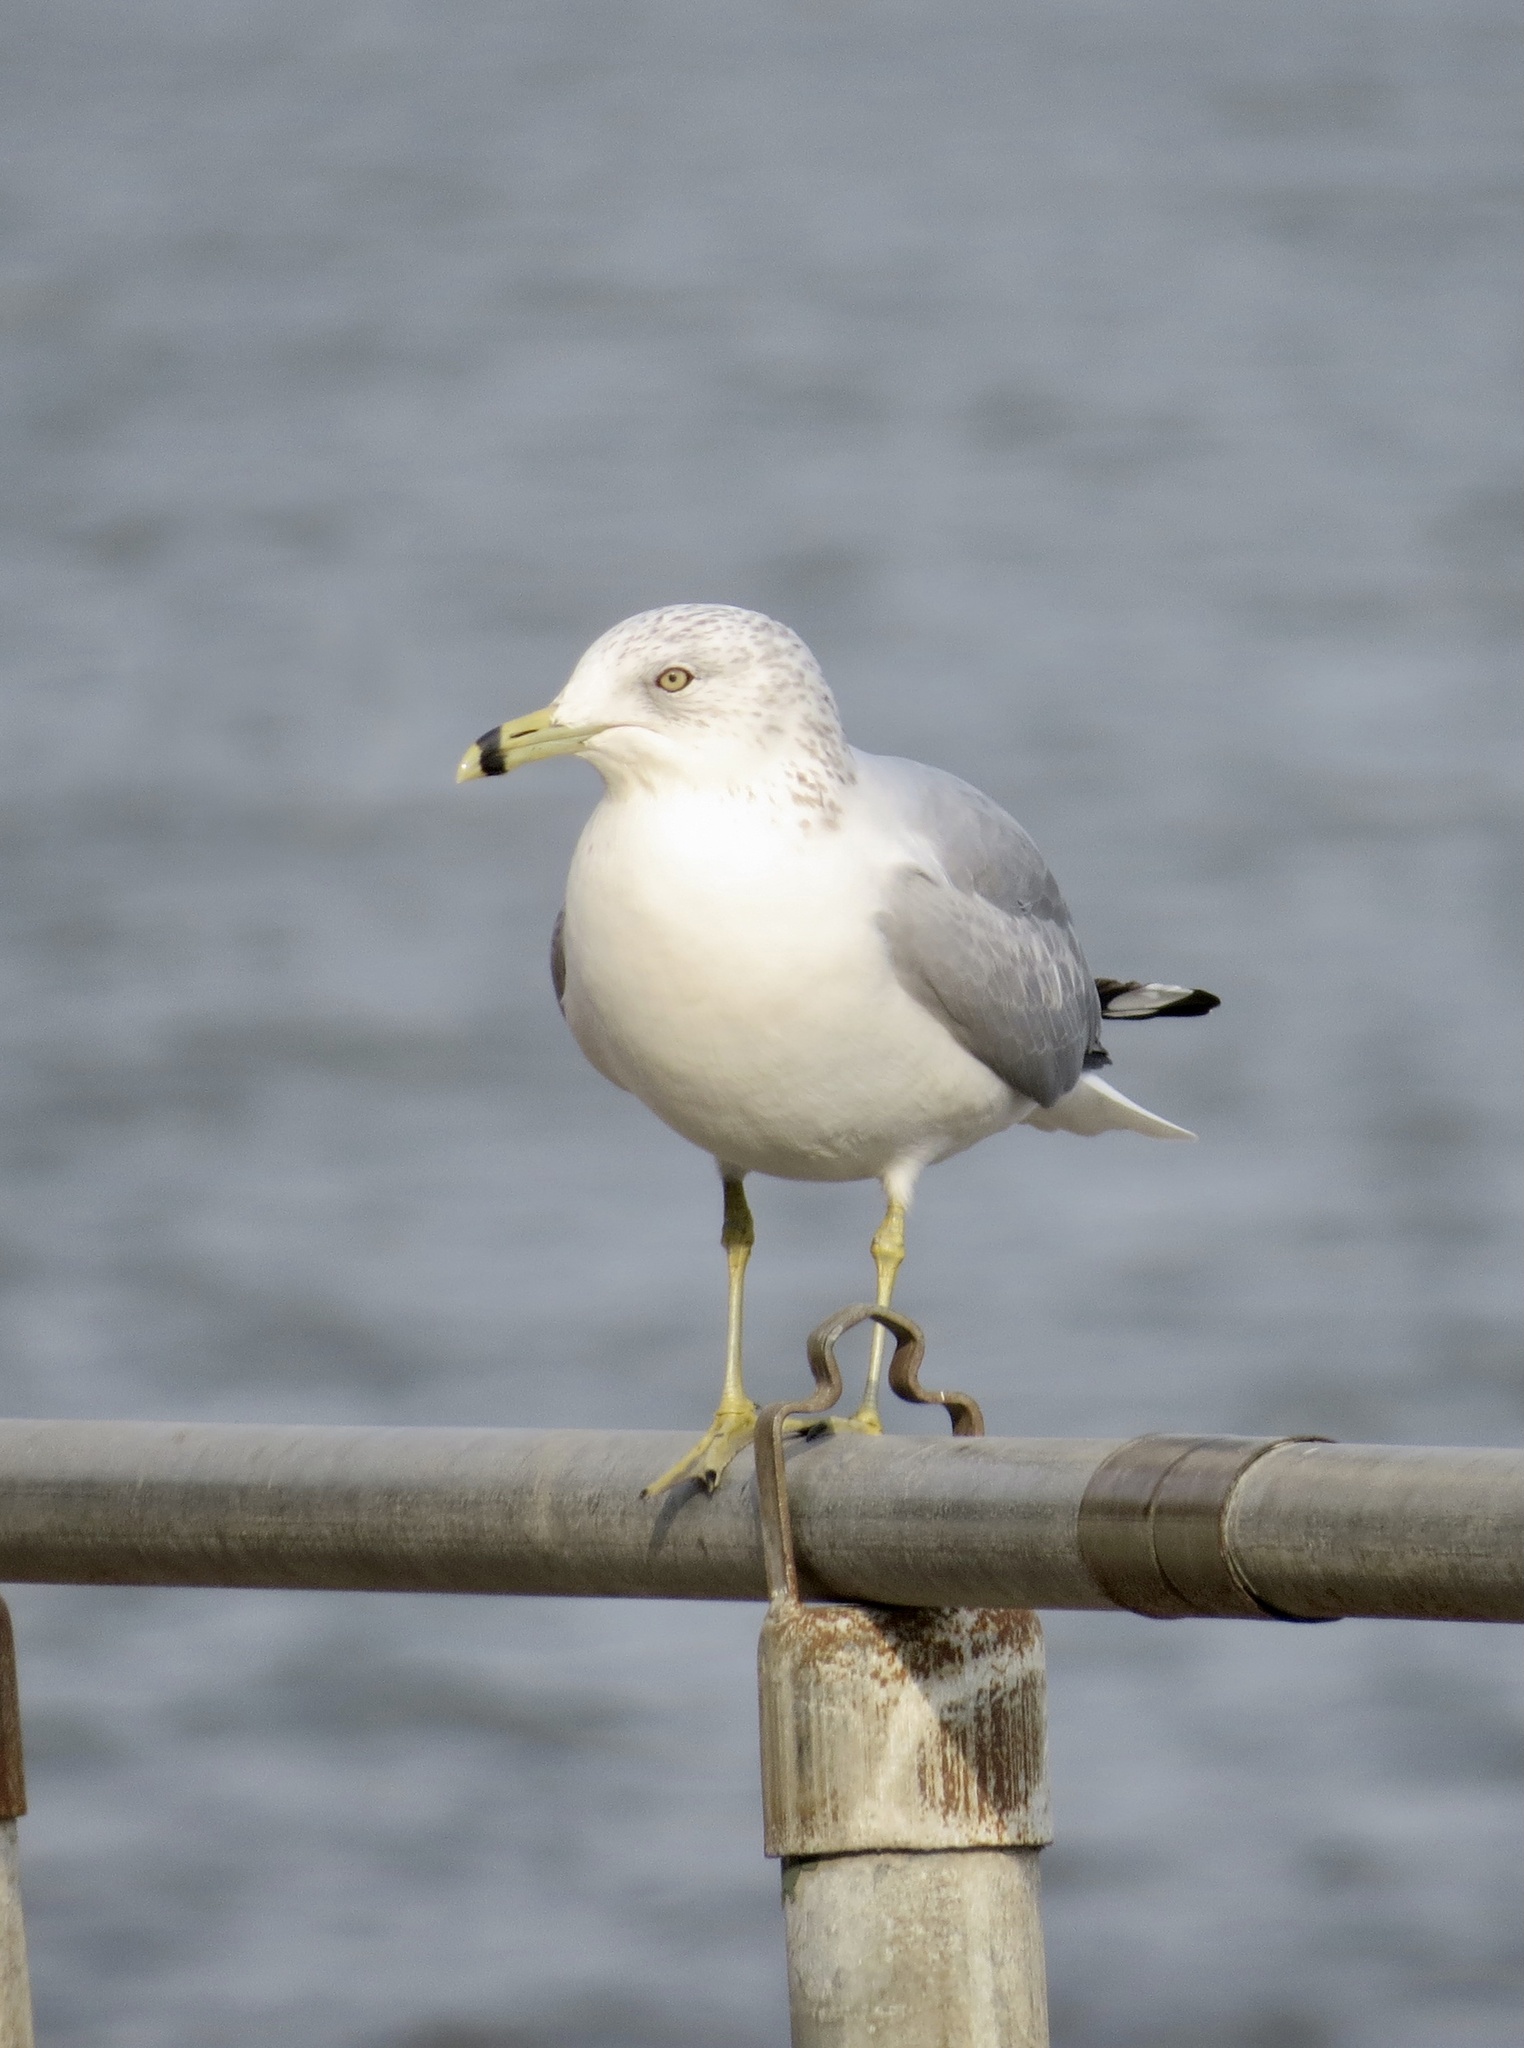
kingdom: Animalia
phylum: Chordata
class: Aves
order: Charadriiformes
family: Laridae
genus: Larus
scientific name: Larus delawarensis
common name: Ring-billed gull
